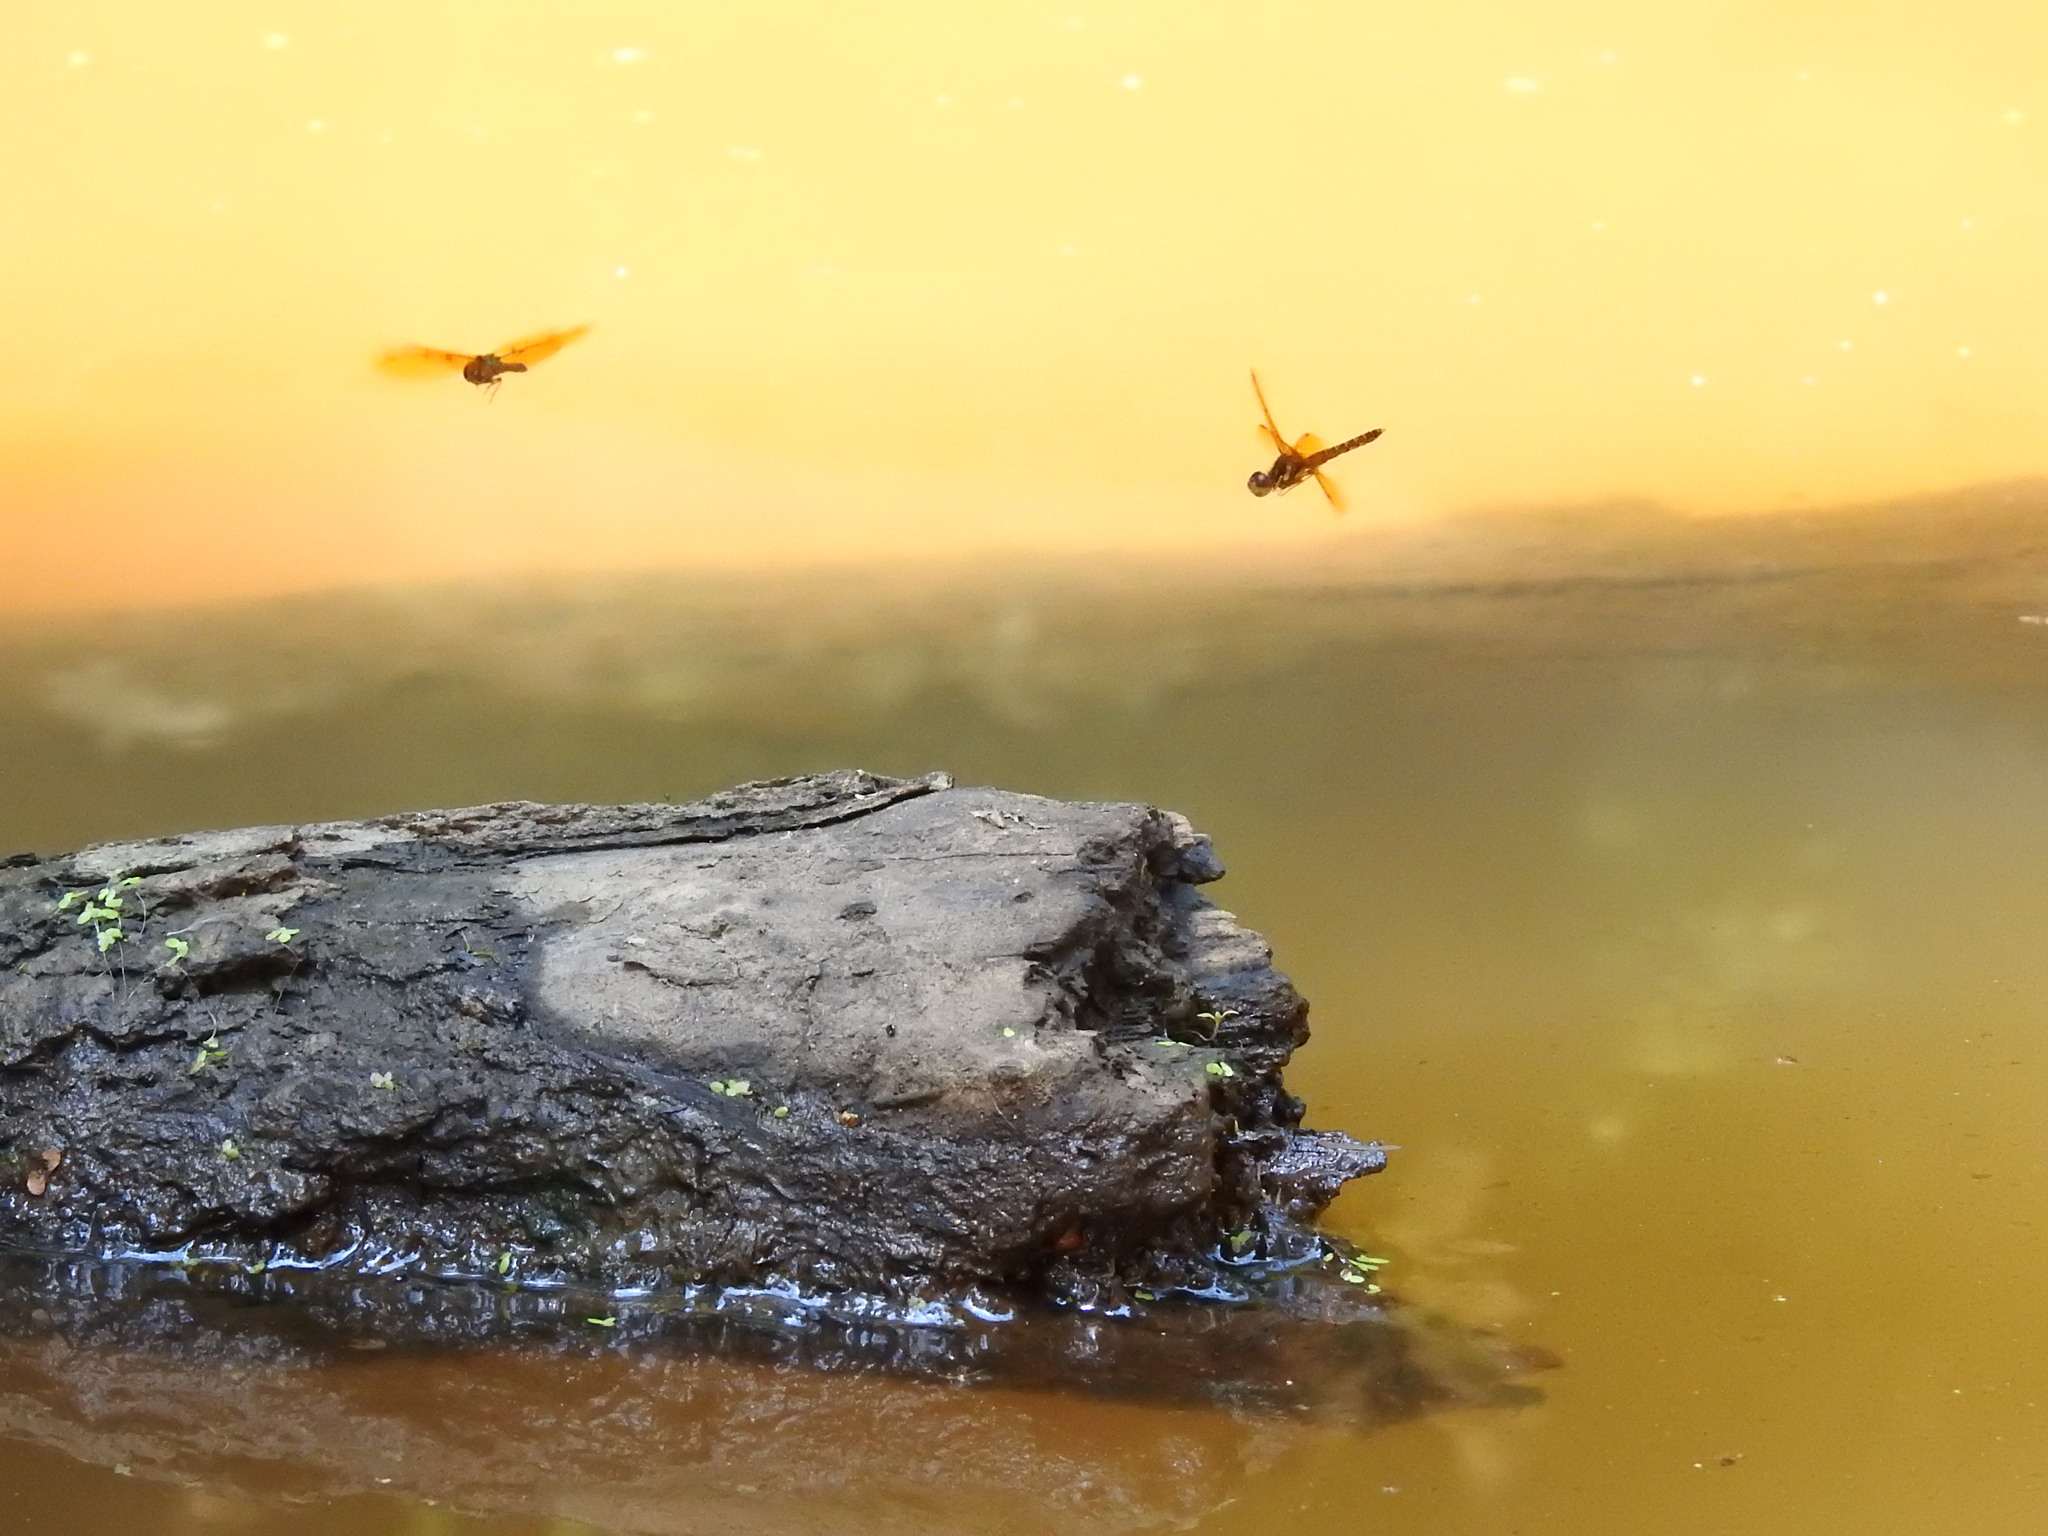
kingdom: Animalia
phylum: Arthropoda
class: Insecta
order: Odonata
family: Libellulidae
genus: Perithemis
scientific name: Perithemis tenera
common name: Eastern amberwing
